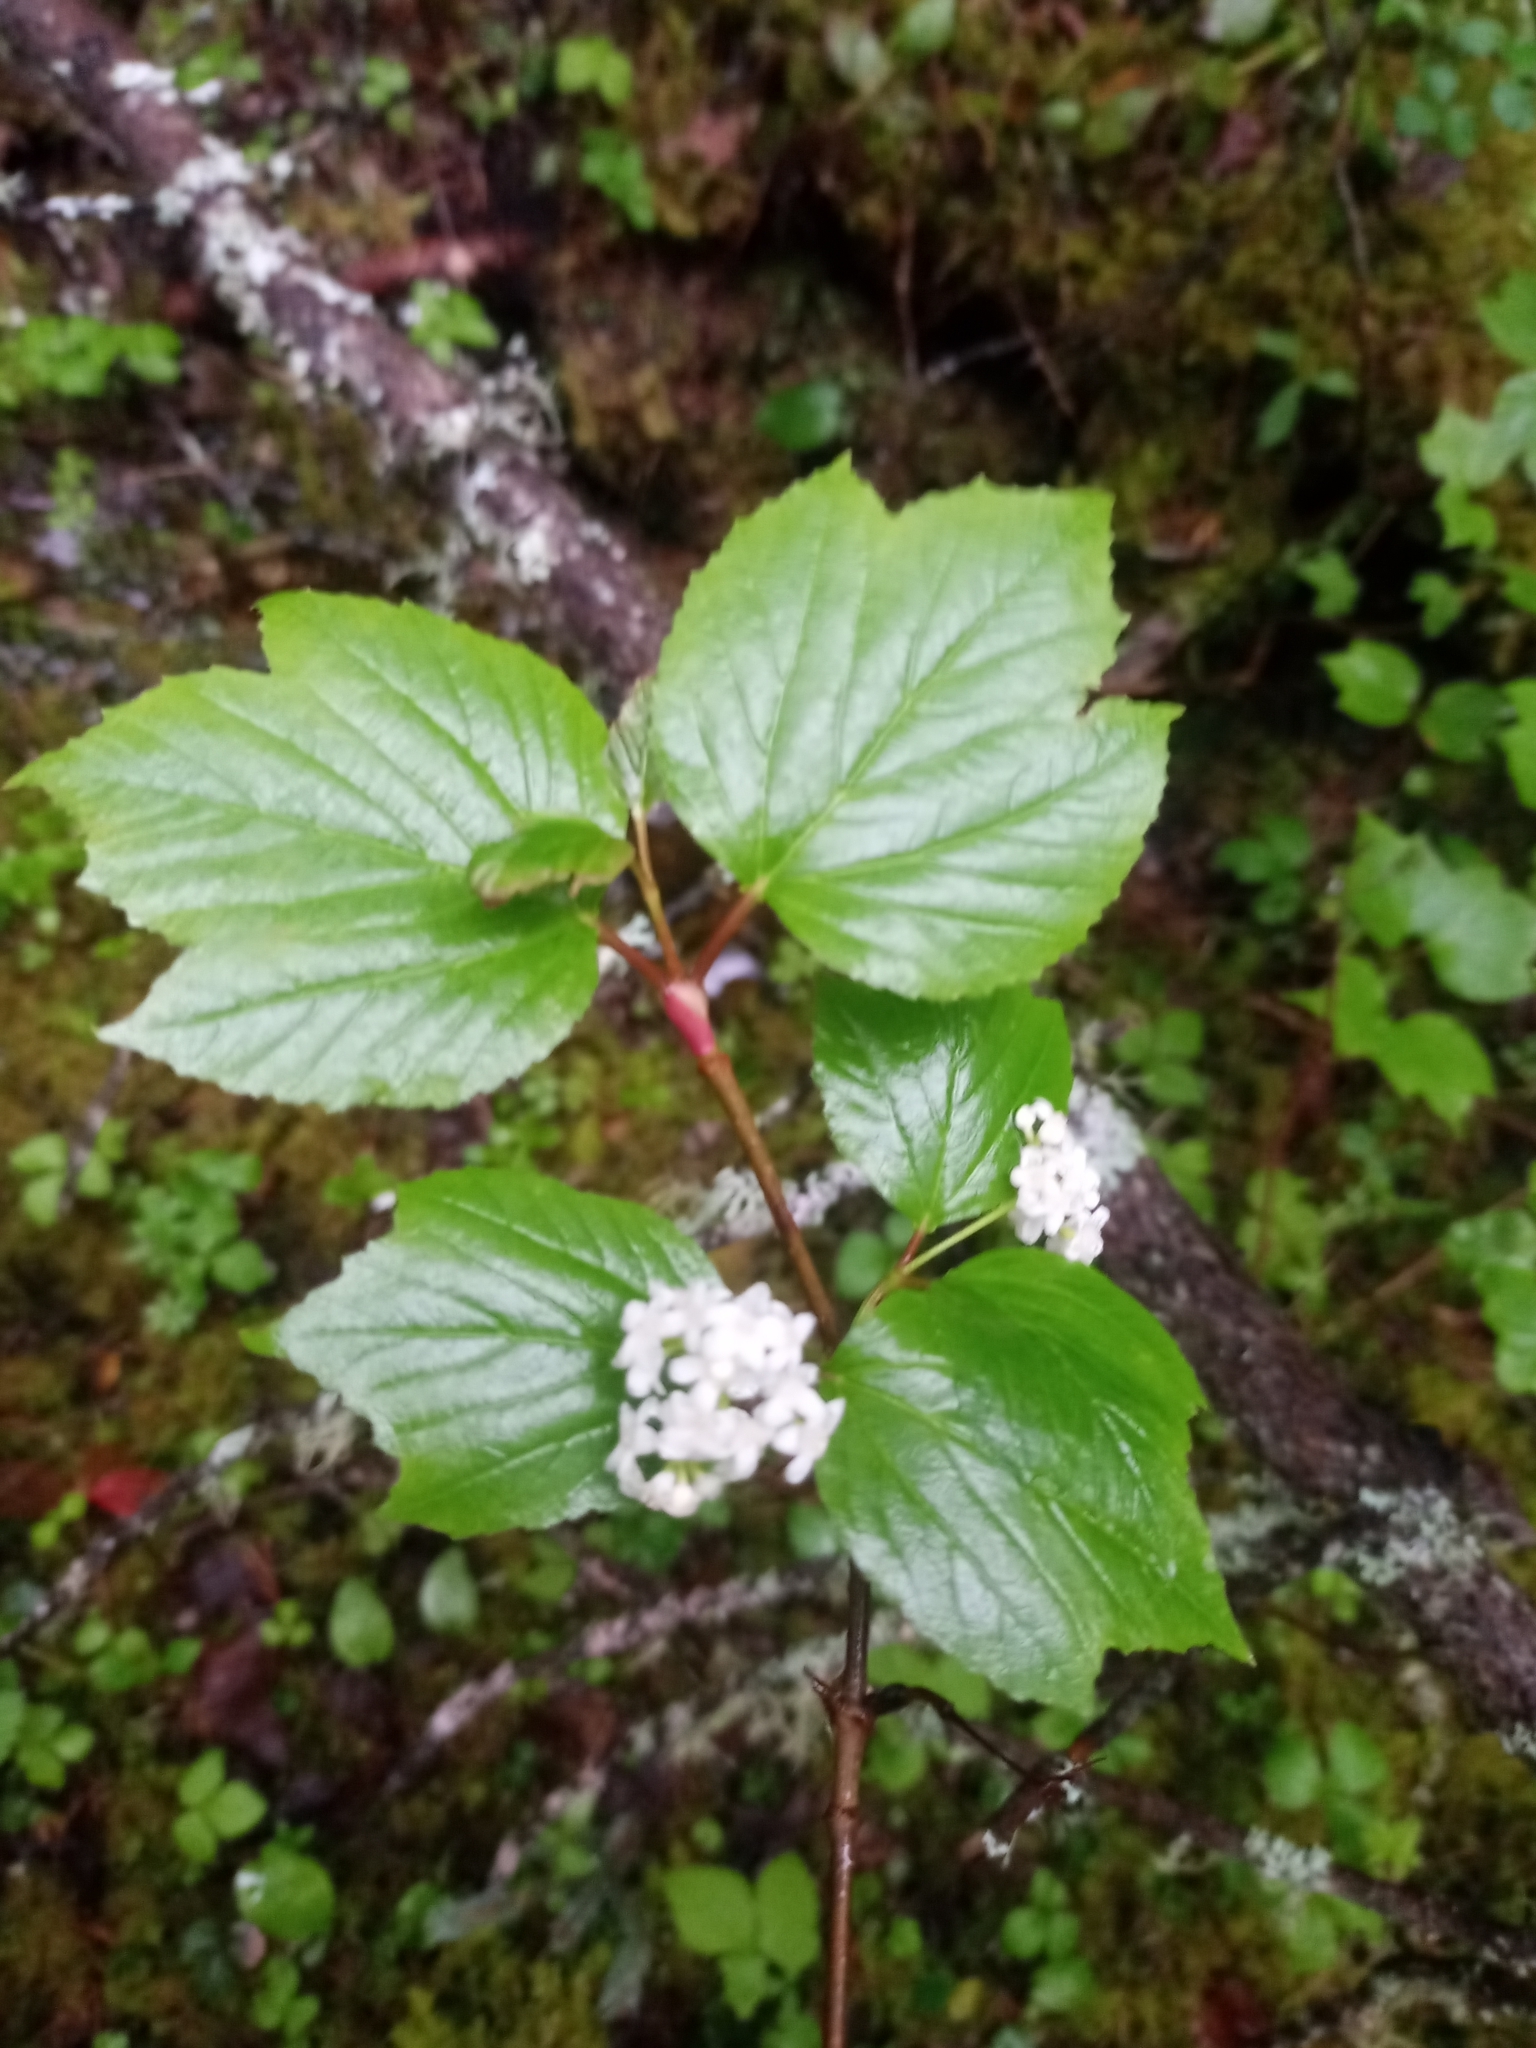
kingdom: Plantae
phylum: Tracheophyta
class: Magnoliopsida
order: Dipsacales
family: Viburnaceae
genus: Viburnum
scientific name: Viburnum edule
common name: Mooseberry
